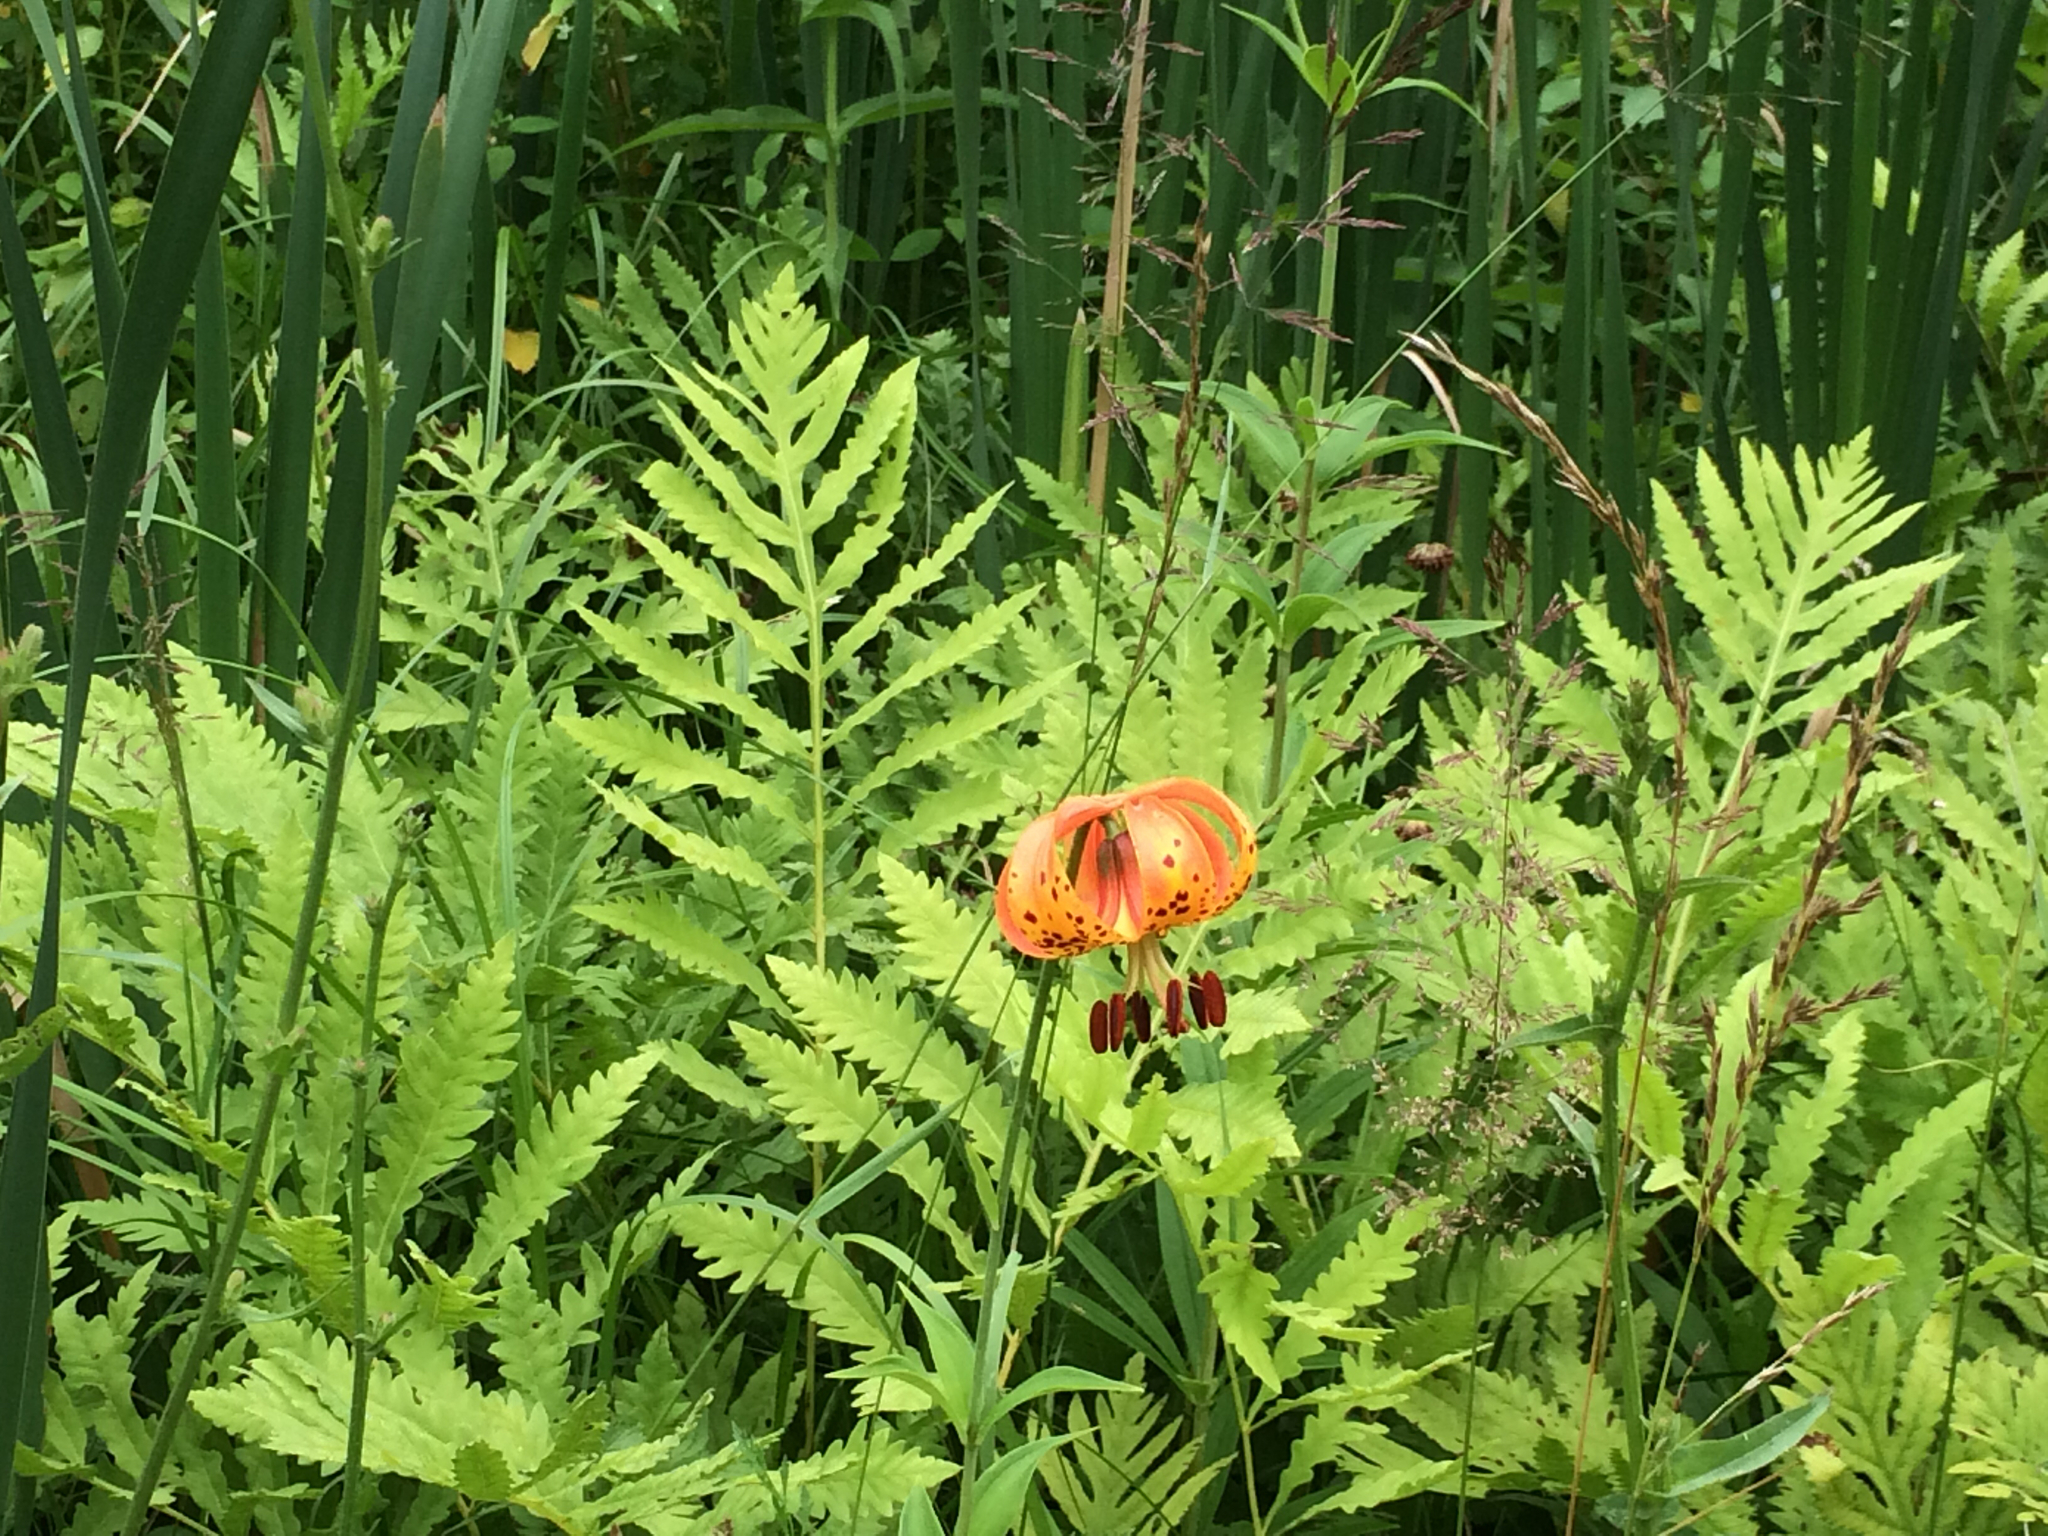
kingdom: Plantae
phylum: Tracheophyta
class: Liliopsida
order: Liliales
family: Liliaceae
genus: Lilium
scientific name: Lilium michiganense
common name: Michigan lily
